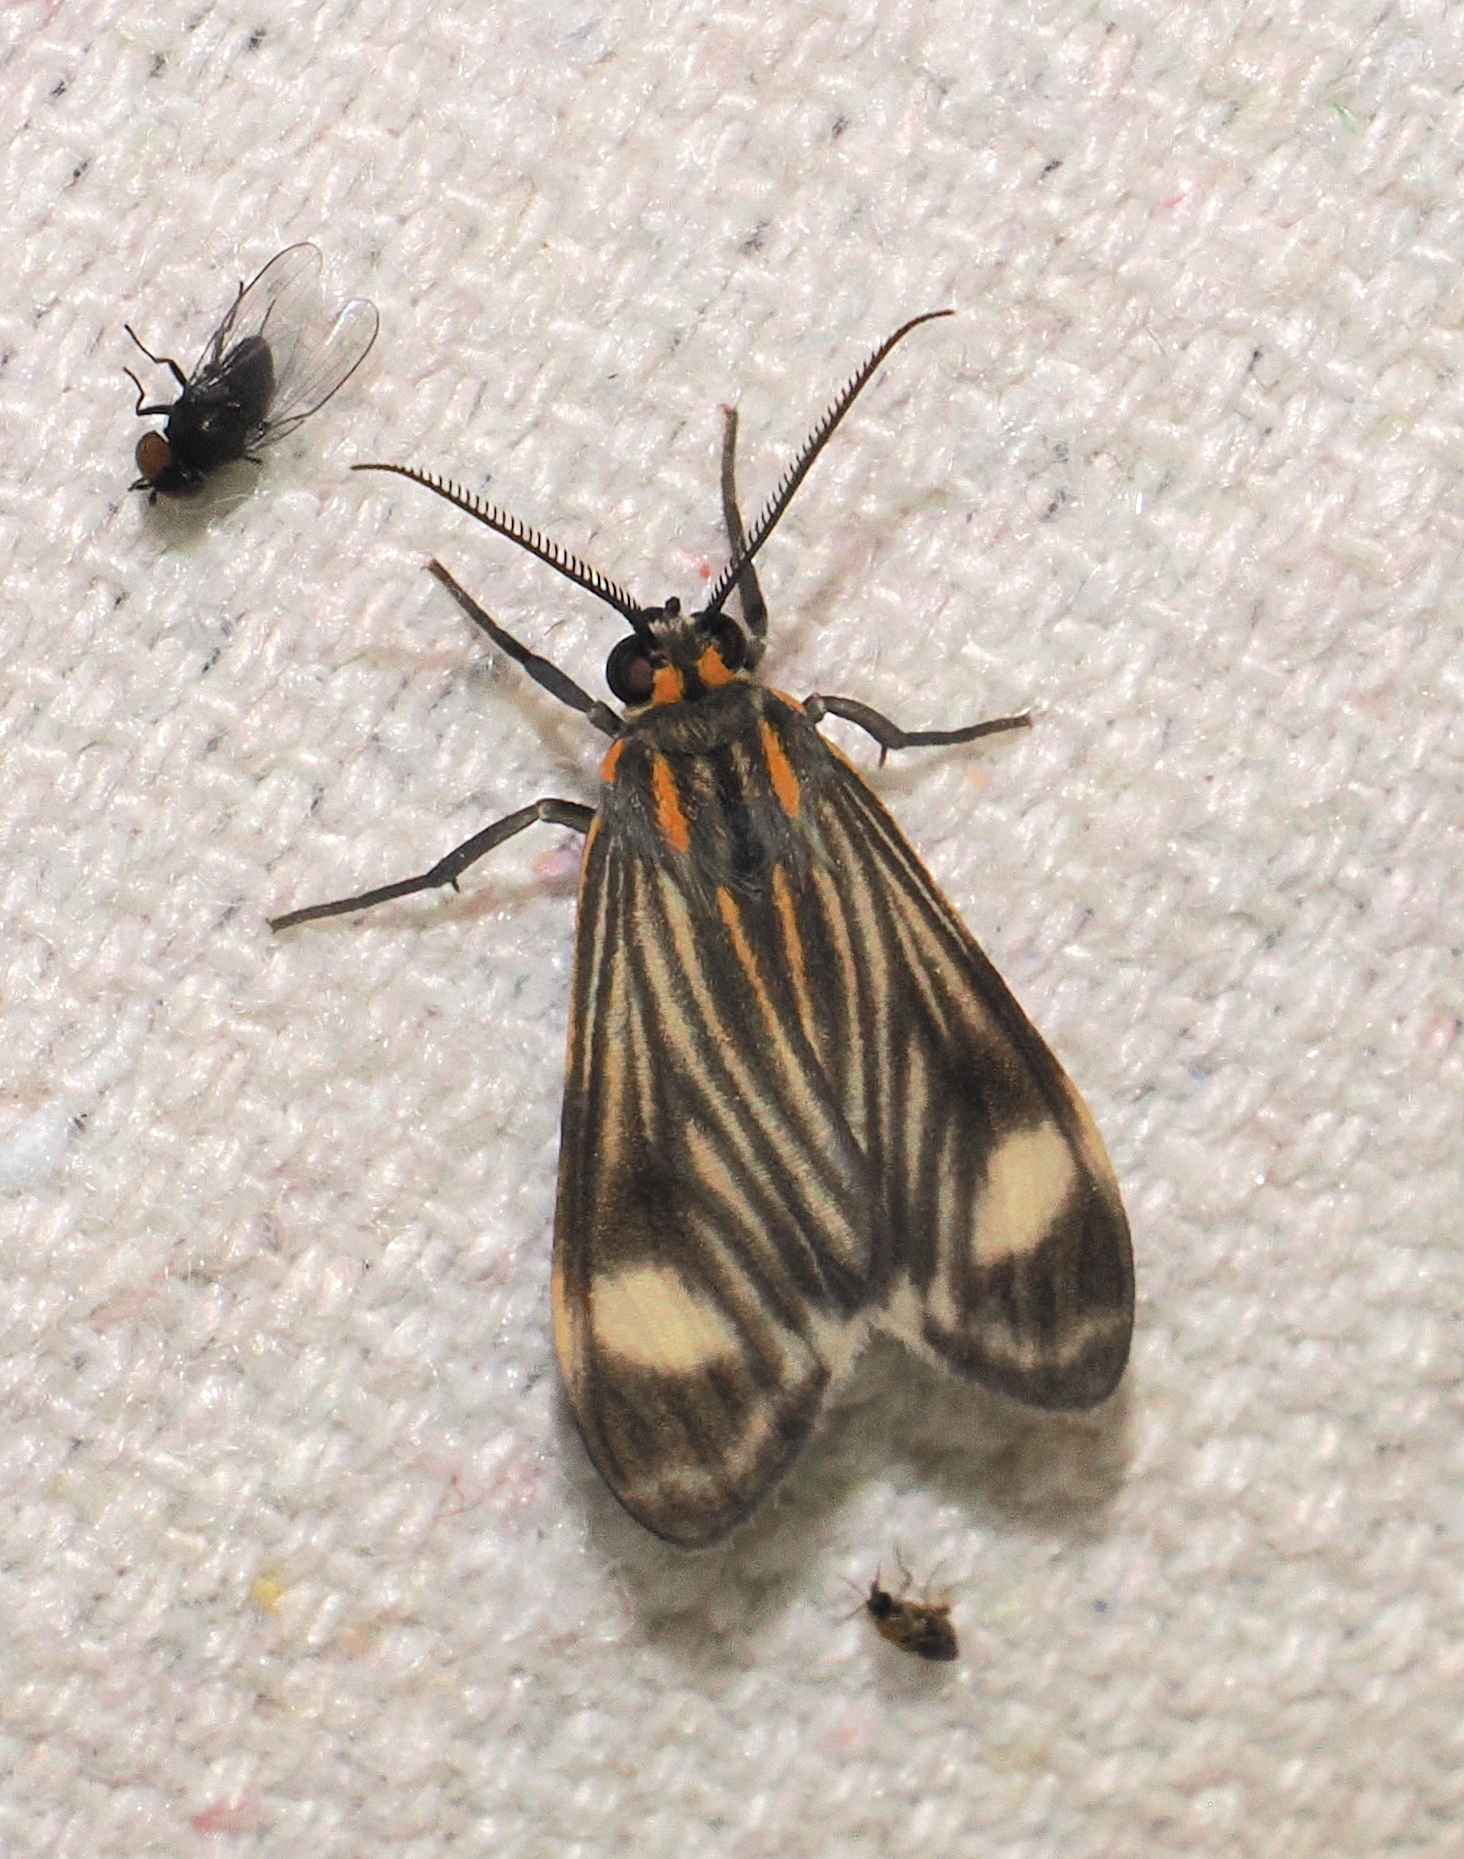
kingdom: Animalia
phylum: Arthropoda
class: Insecta
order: Lepidoptera
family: Erebidae
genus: Eucereon
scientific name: Eucereon venosa
